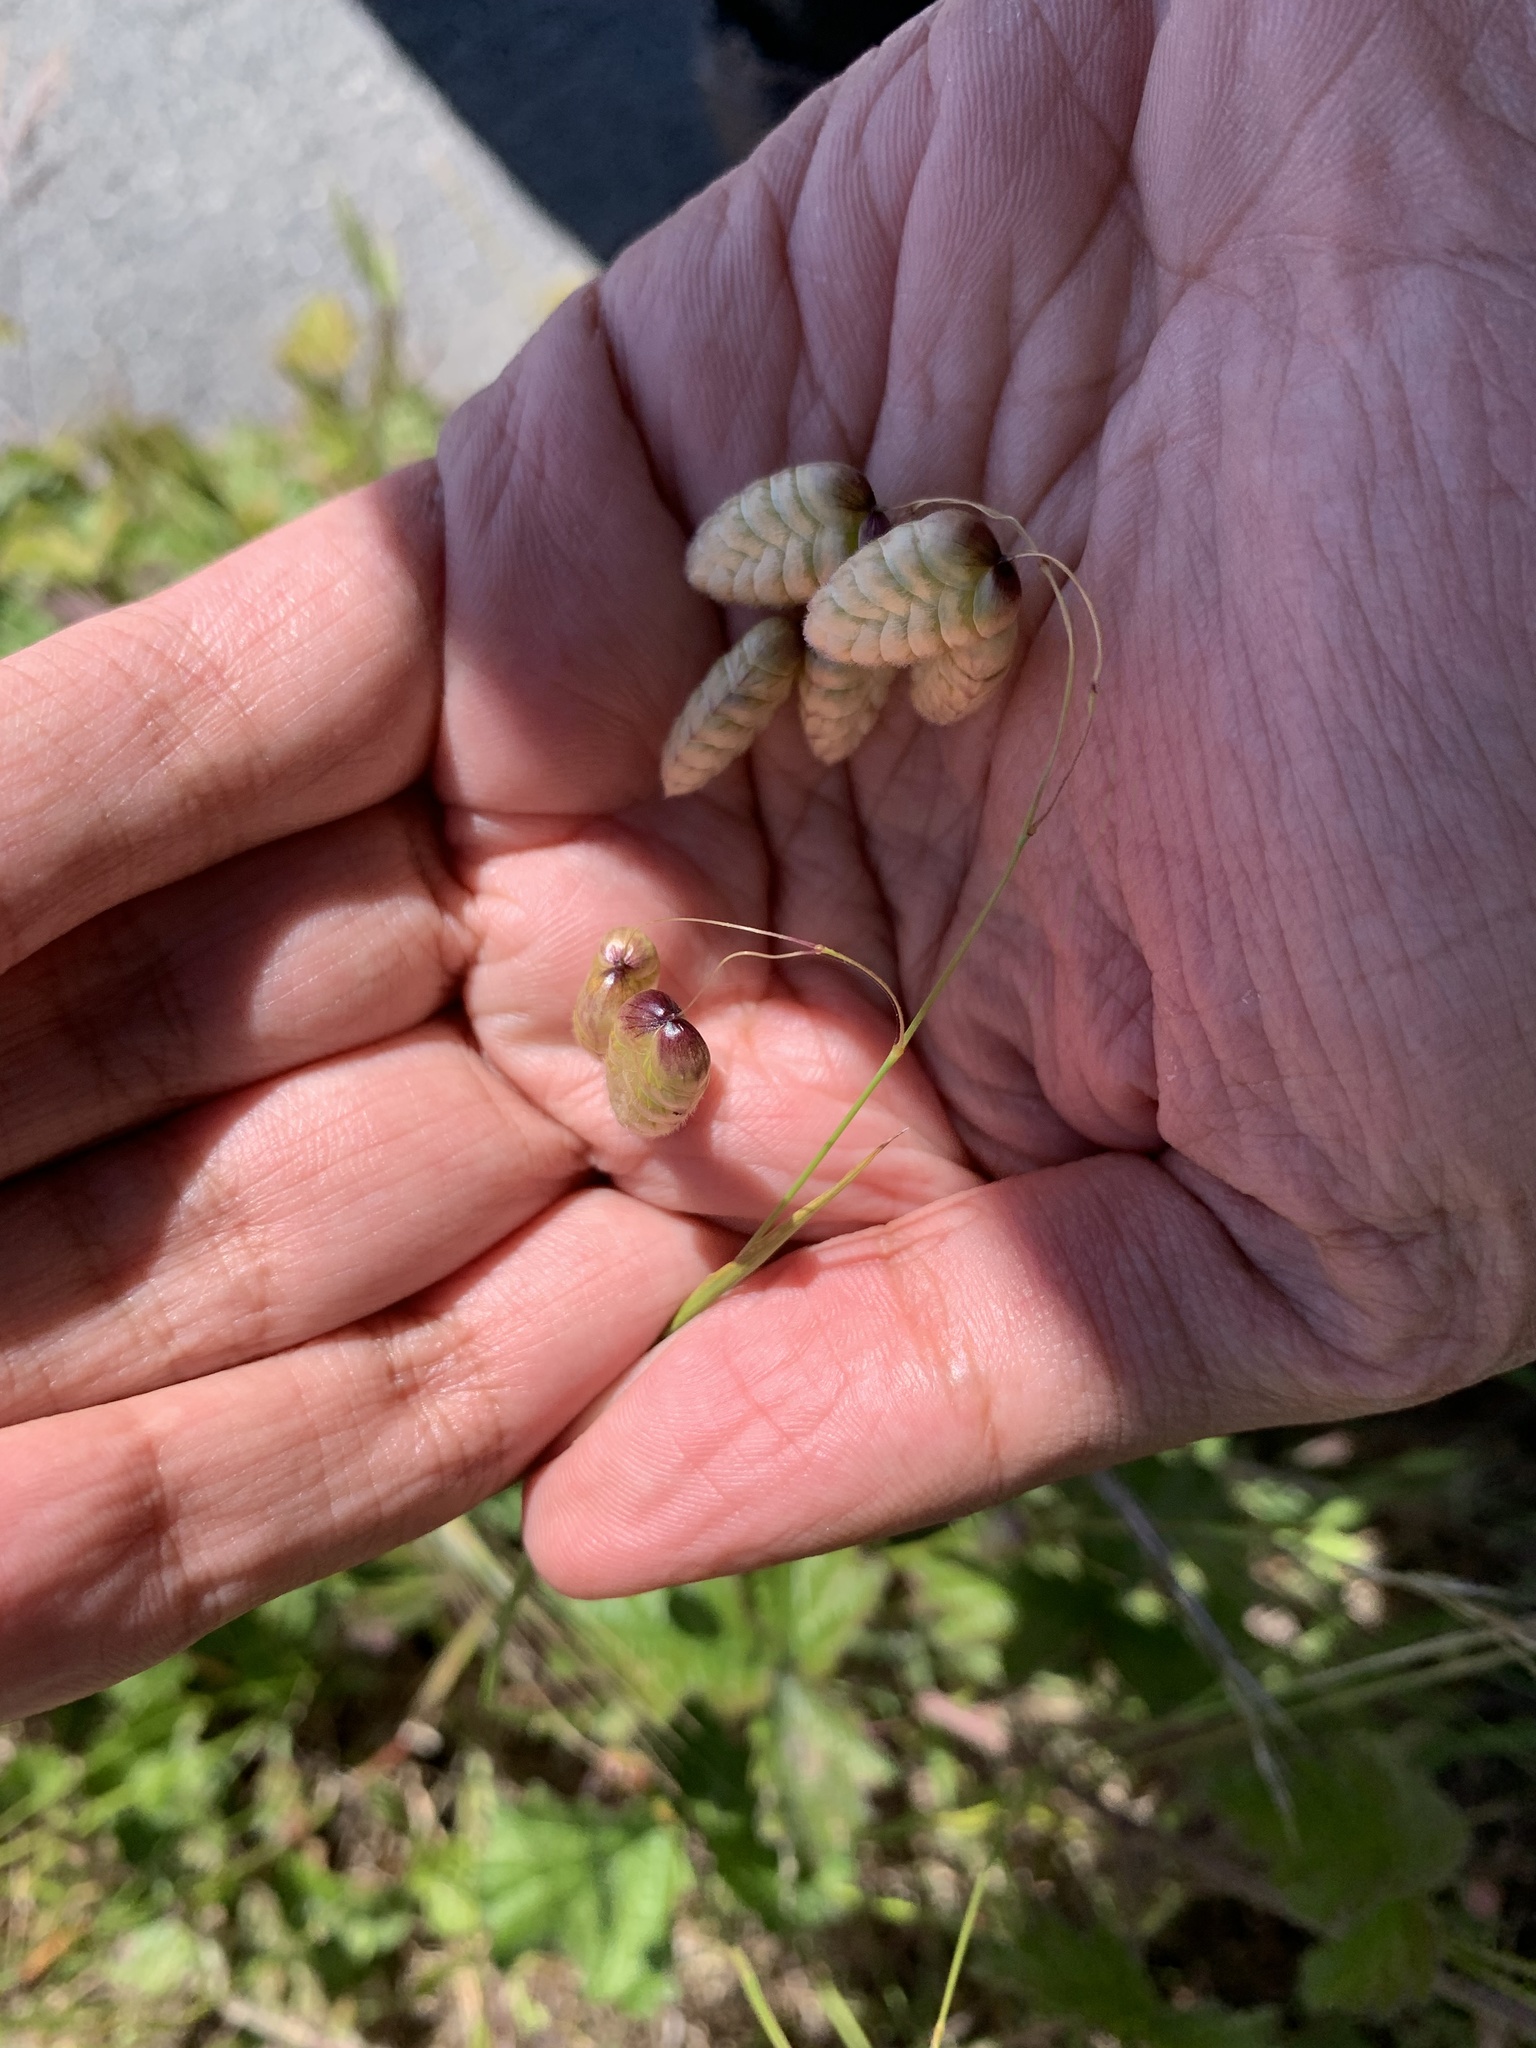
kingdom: Plantae
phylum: Tracheophyta
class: Liliopsida
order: Poales
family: Poaceae
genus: Briza
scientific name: Briza maxima
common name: Big quakinggrass
